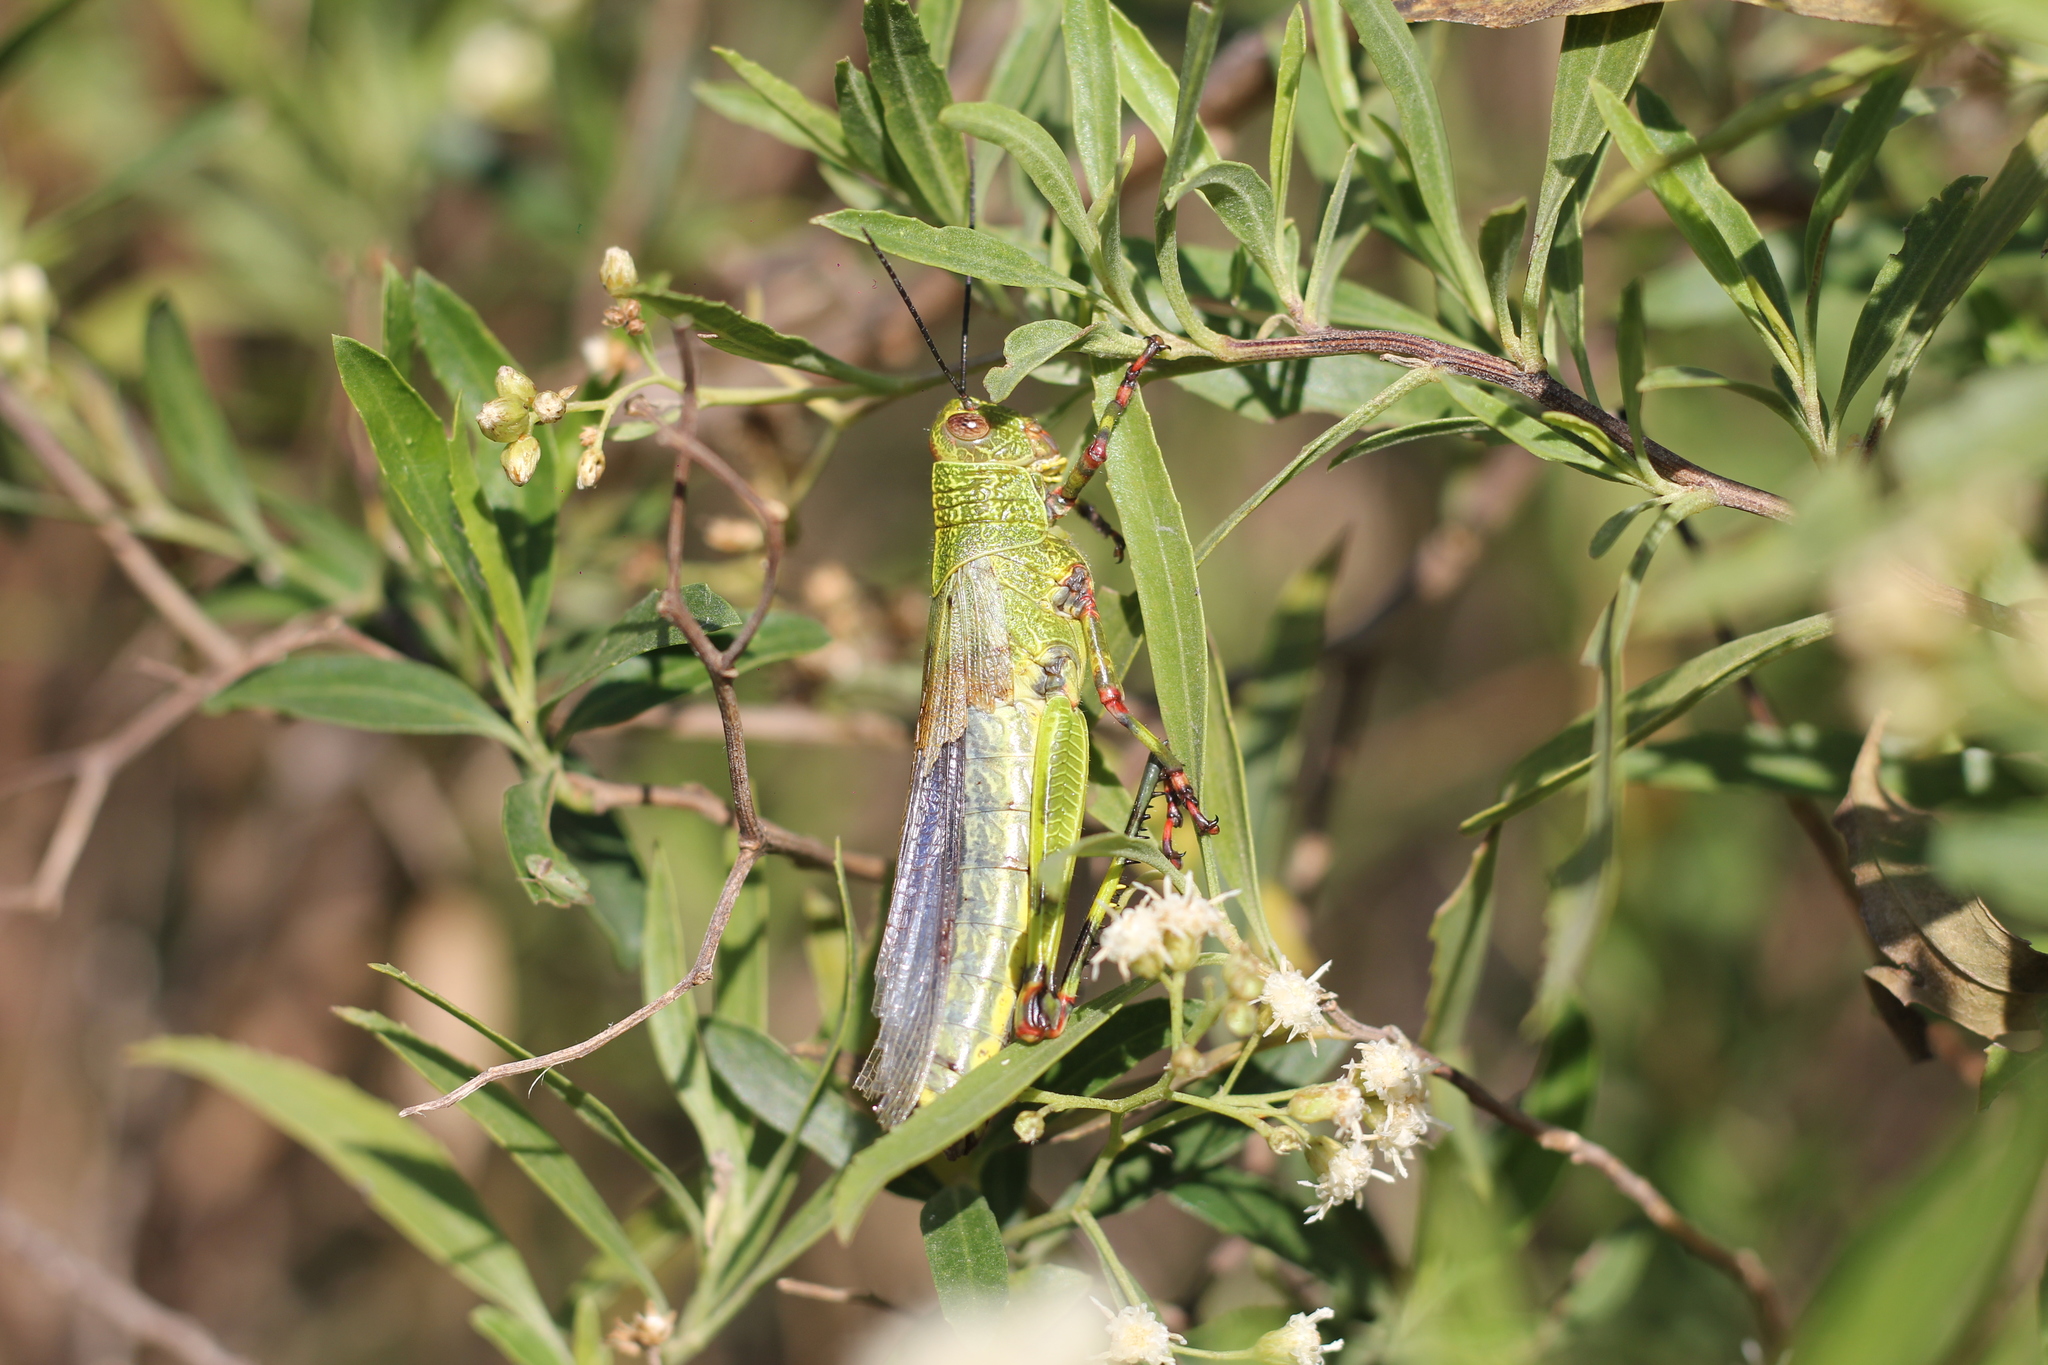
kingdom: Animalia
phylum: Arthropoda
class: Insecta
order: Orthoptera
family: Romaleidae
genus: Zoniopoda
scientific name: Zoniopoda tarsata
